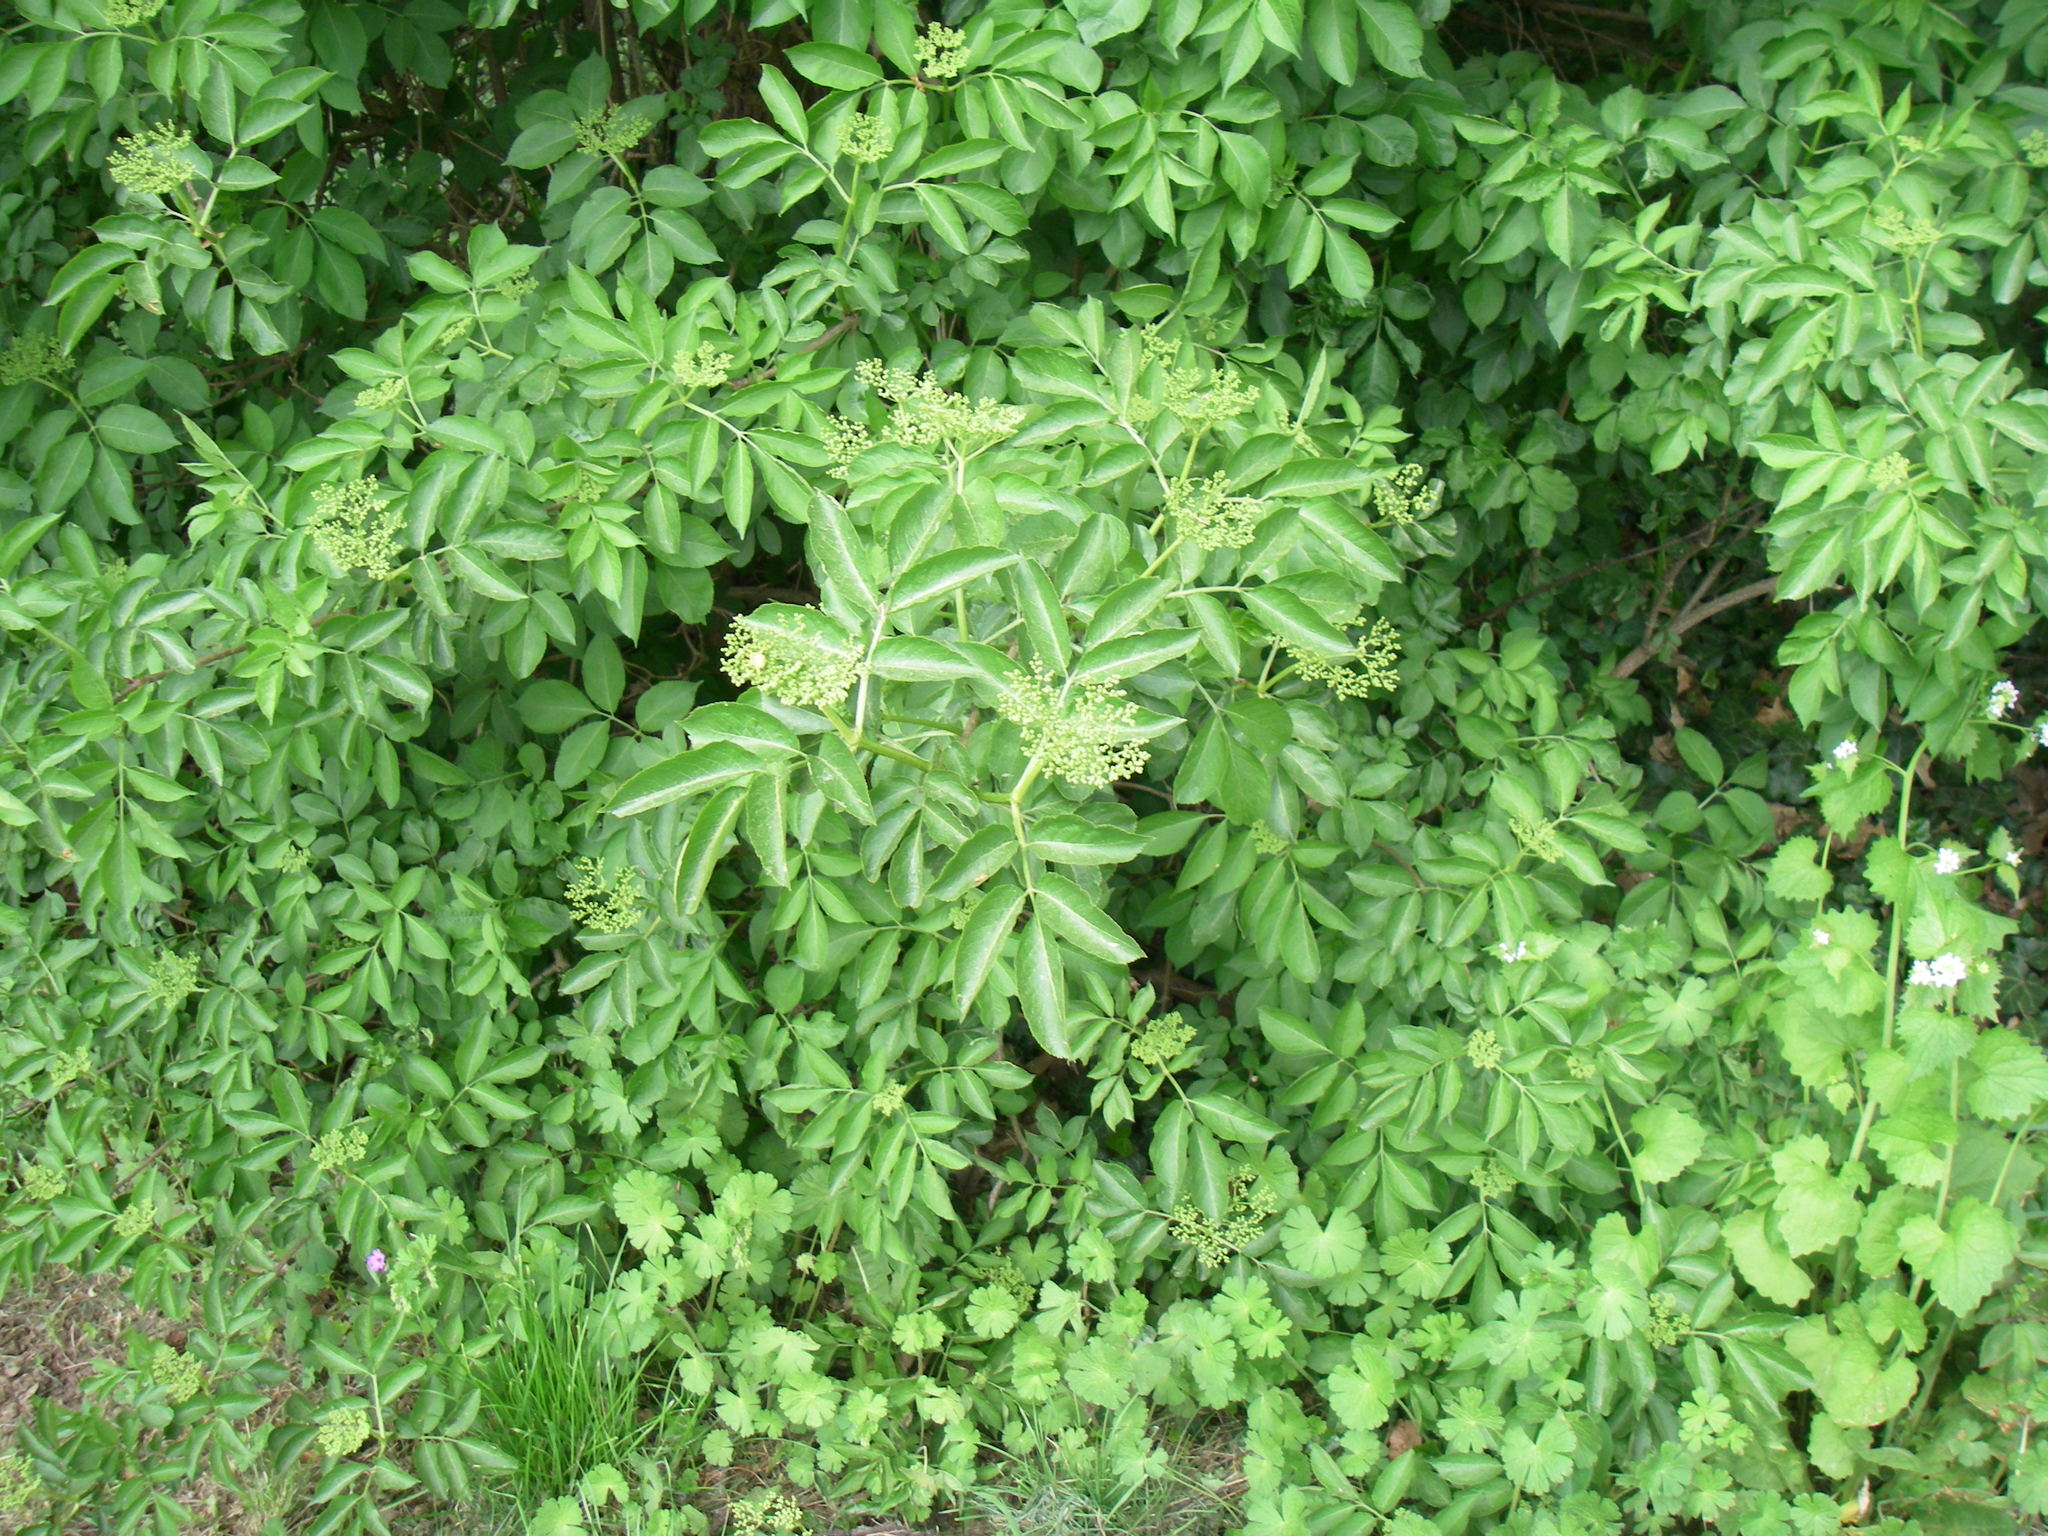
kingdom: Plantae
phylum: Tracheophyta
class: Magnoliopsida
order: Dipsacales
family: Viburnaceae
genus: Sambucus
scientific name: Sambucus nigra
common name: Elder
